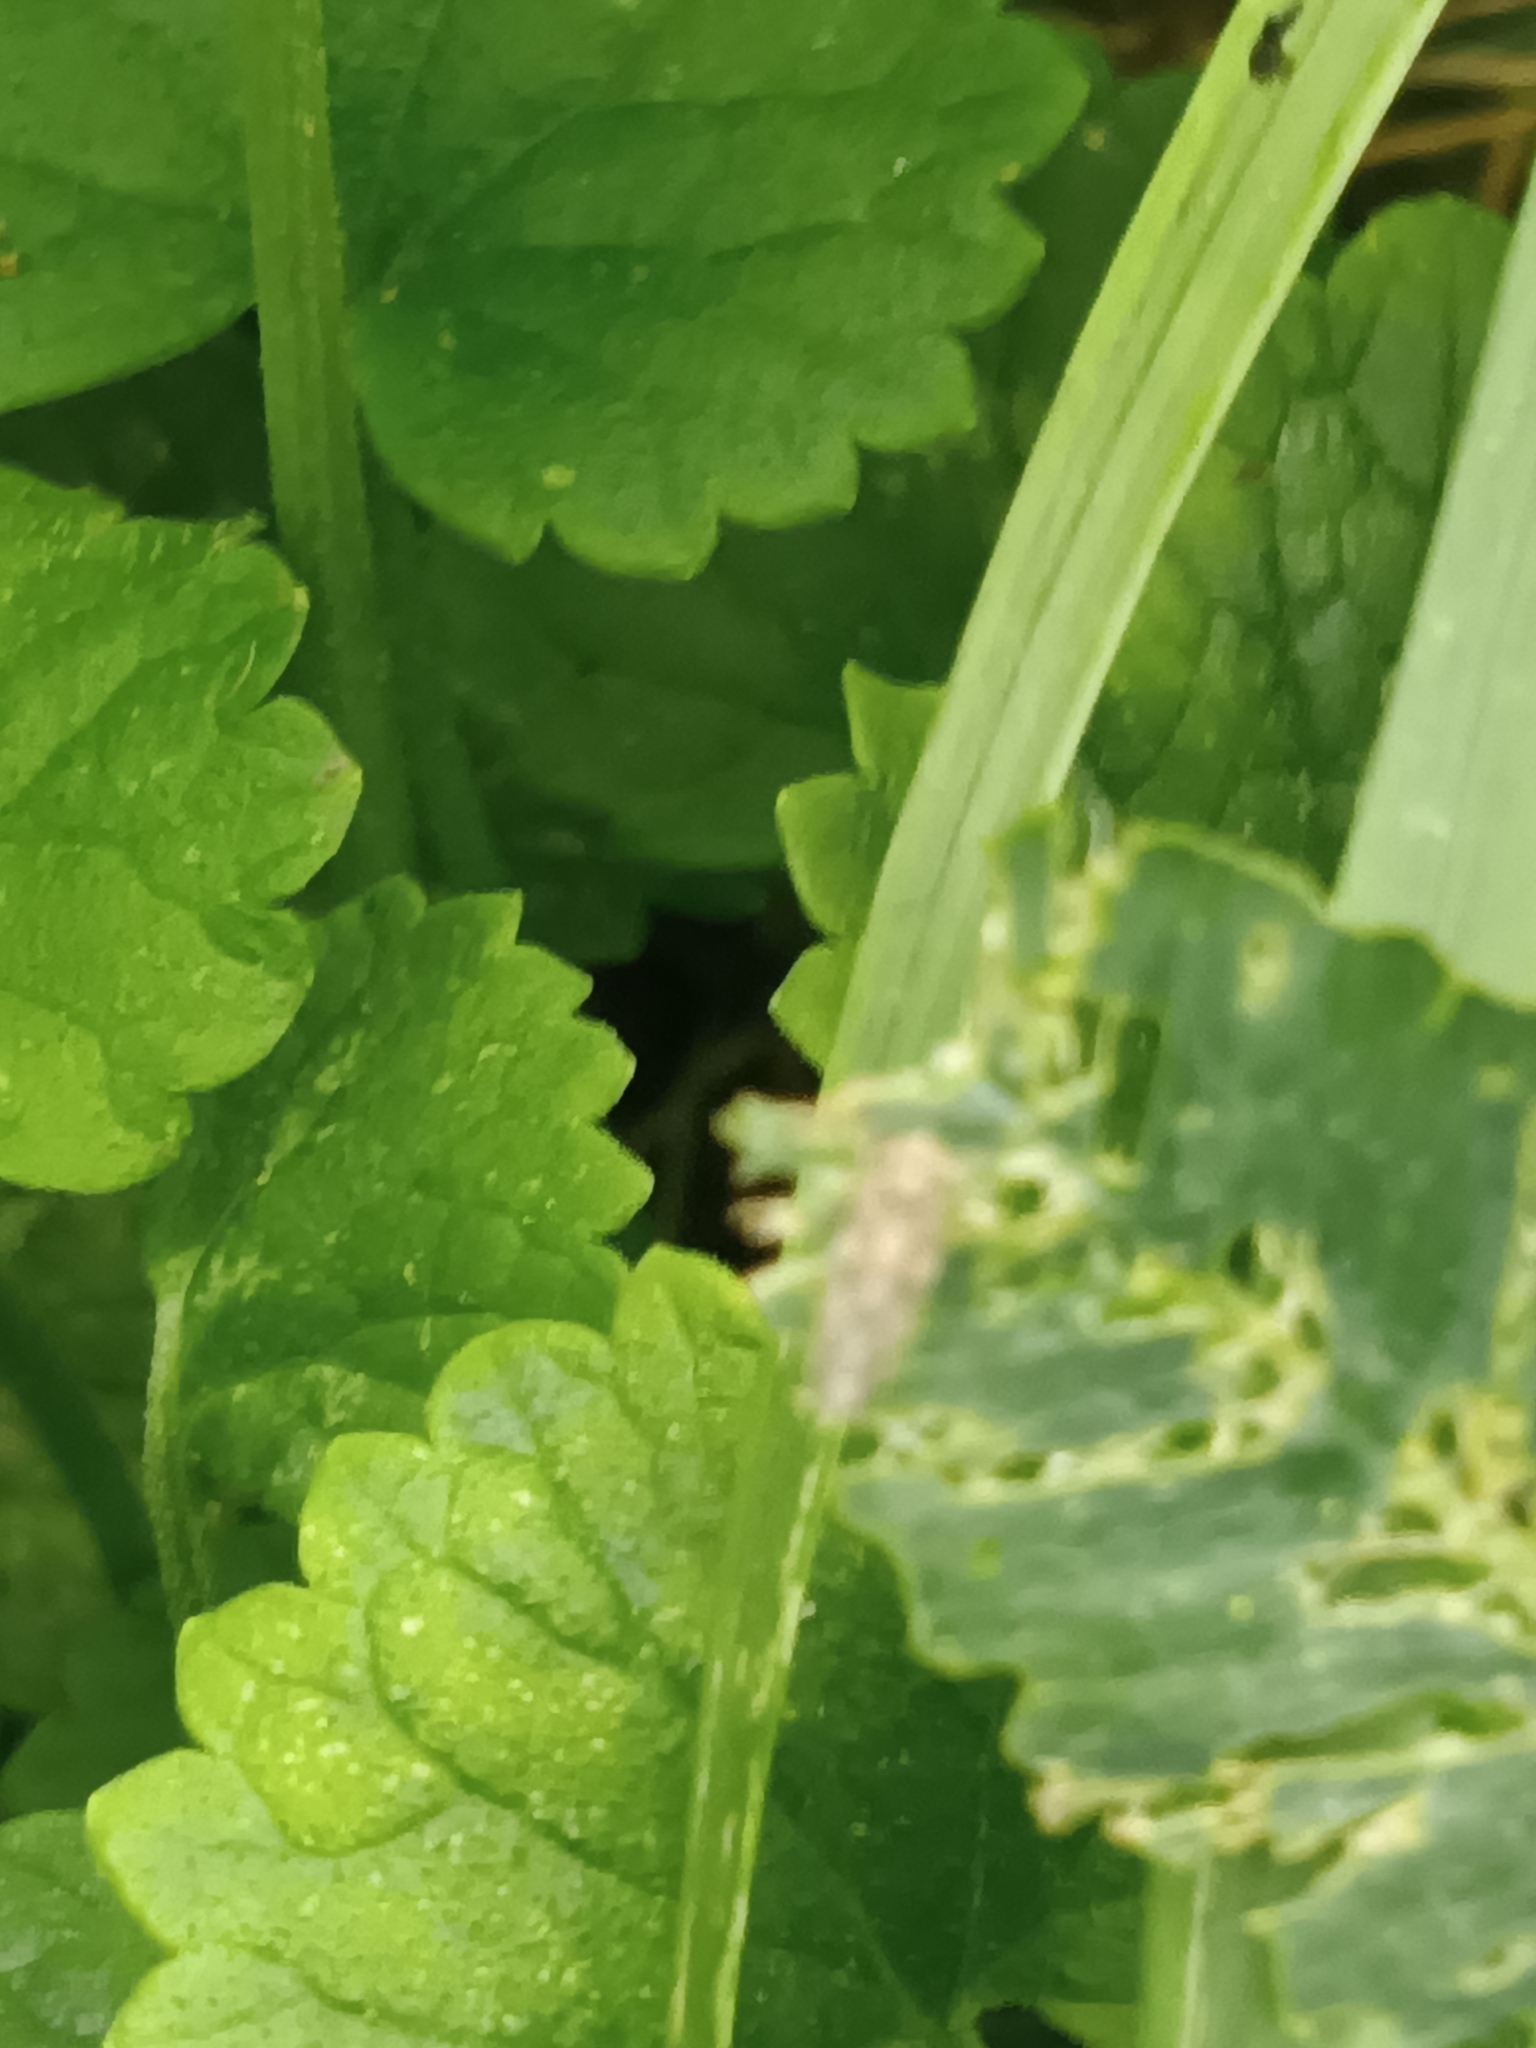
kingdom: Plantae
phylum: Tracheophyta
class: Magnoliopsida
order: Lamiales
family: Lamiaceae
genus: Glechoma
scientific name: Glechoma hederacea
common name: Ground ivy
